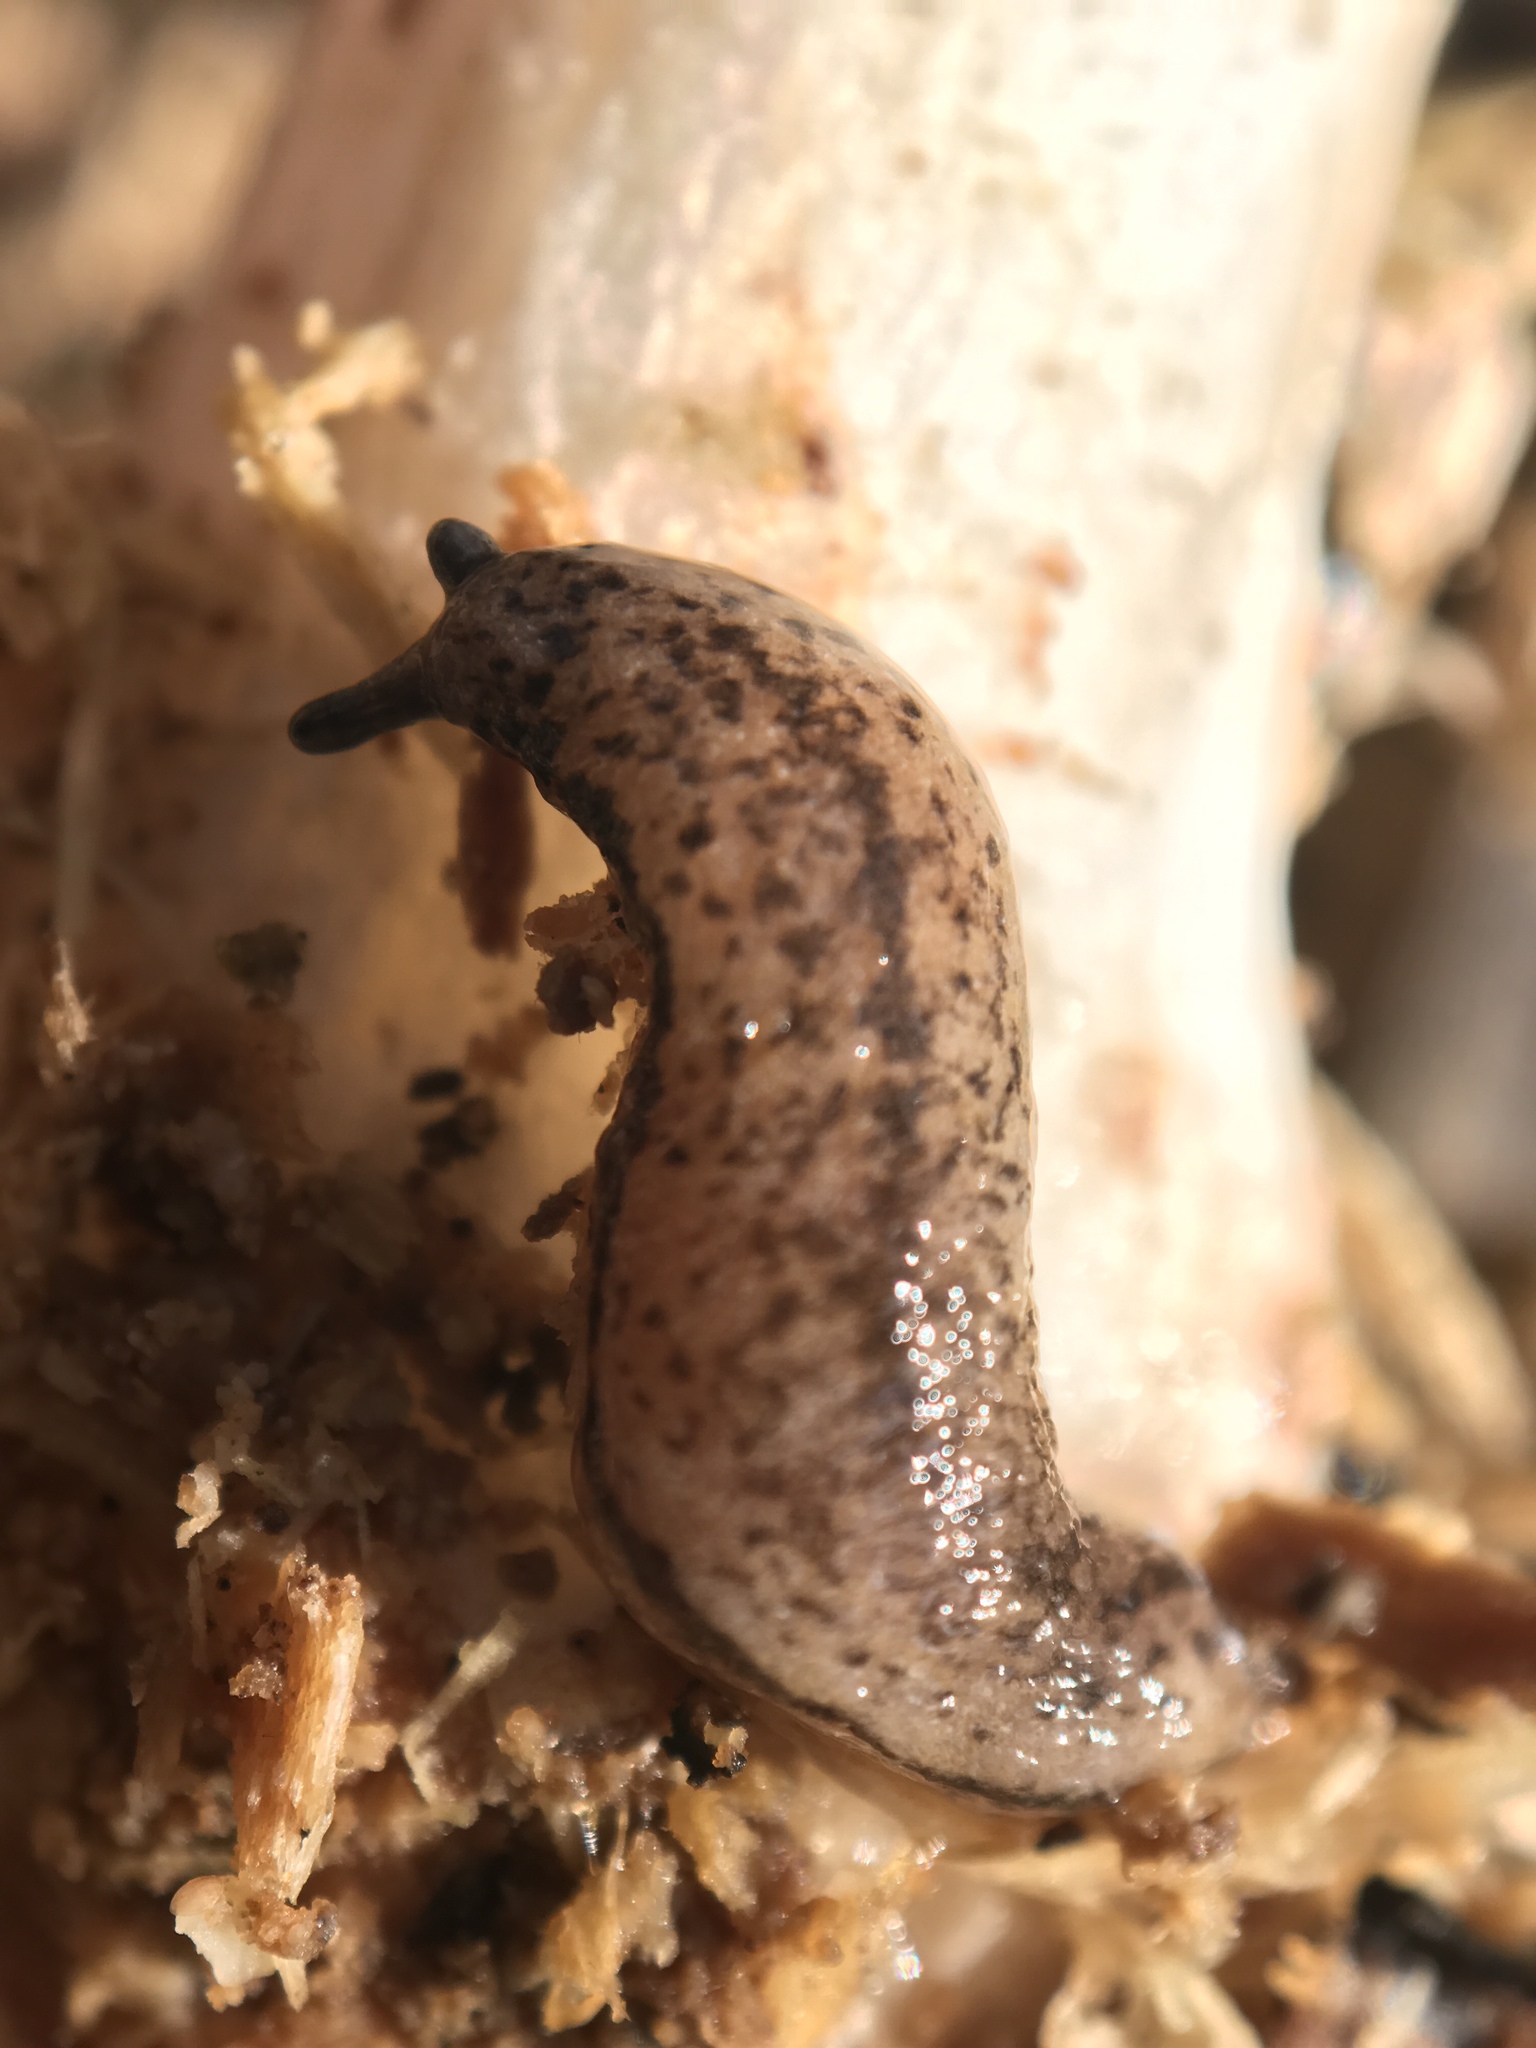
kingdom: Animalia
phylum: Mollusca
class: Gastropoda
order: Stylommatophora
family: Philomycidae
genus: Pallifera
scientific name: Pallifera fosteri
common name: Foster mantleslug
